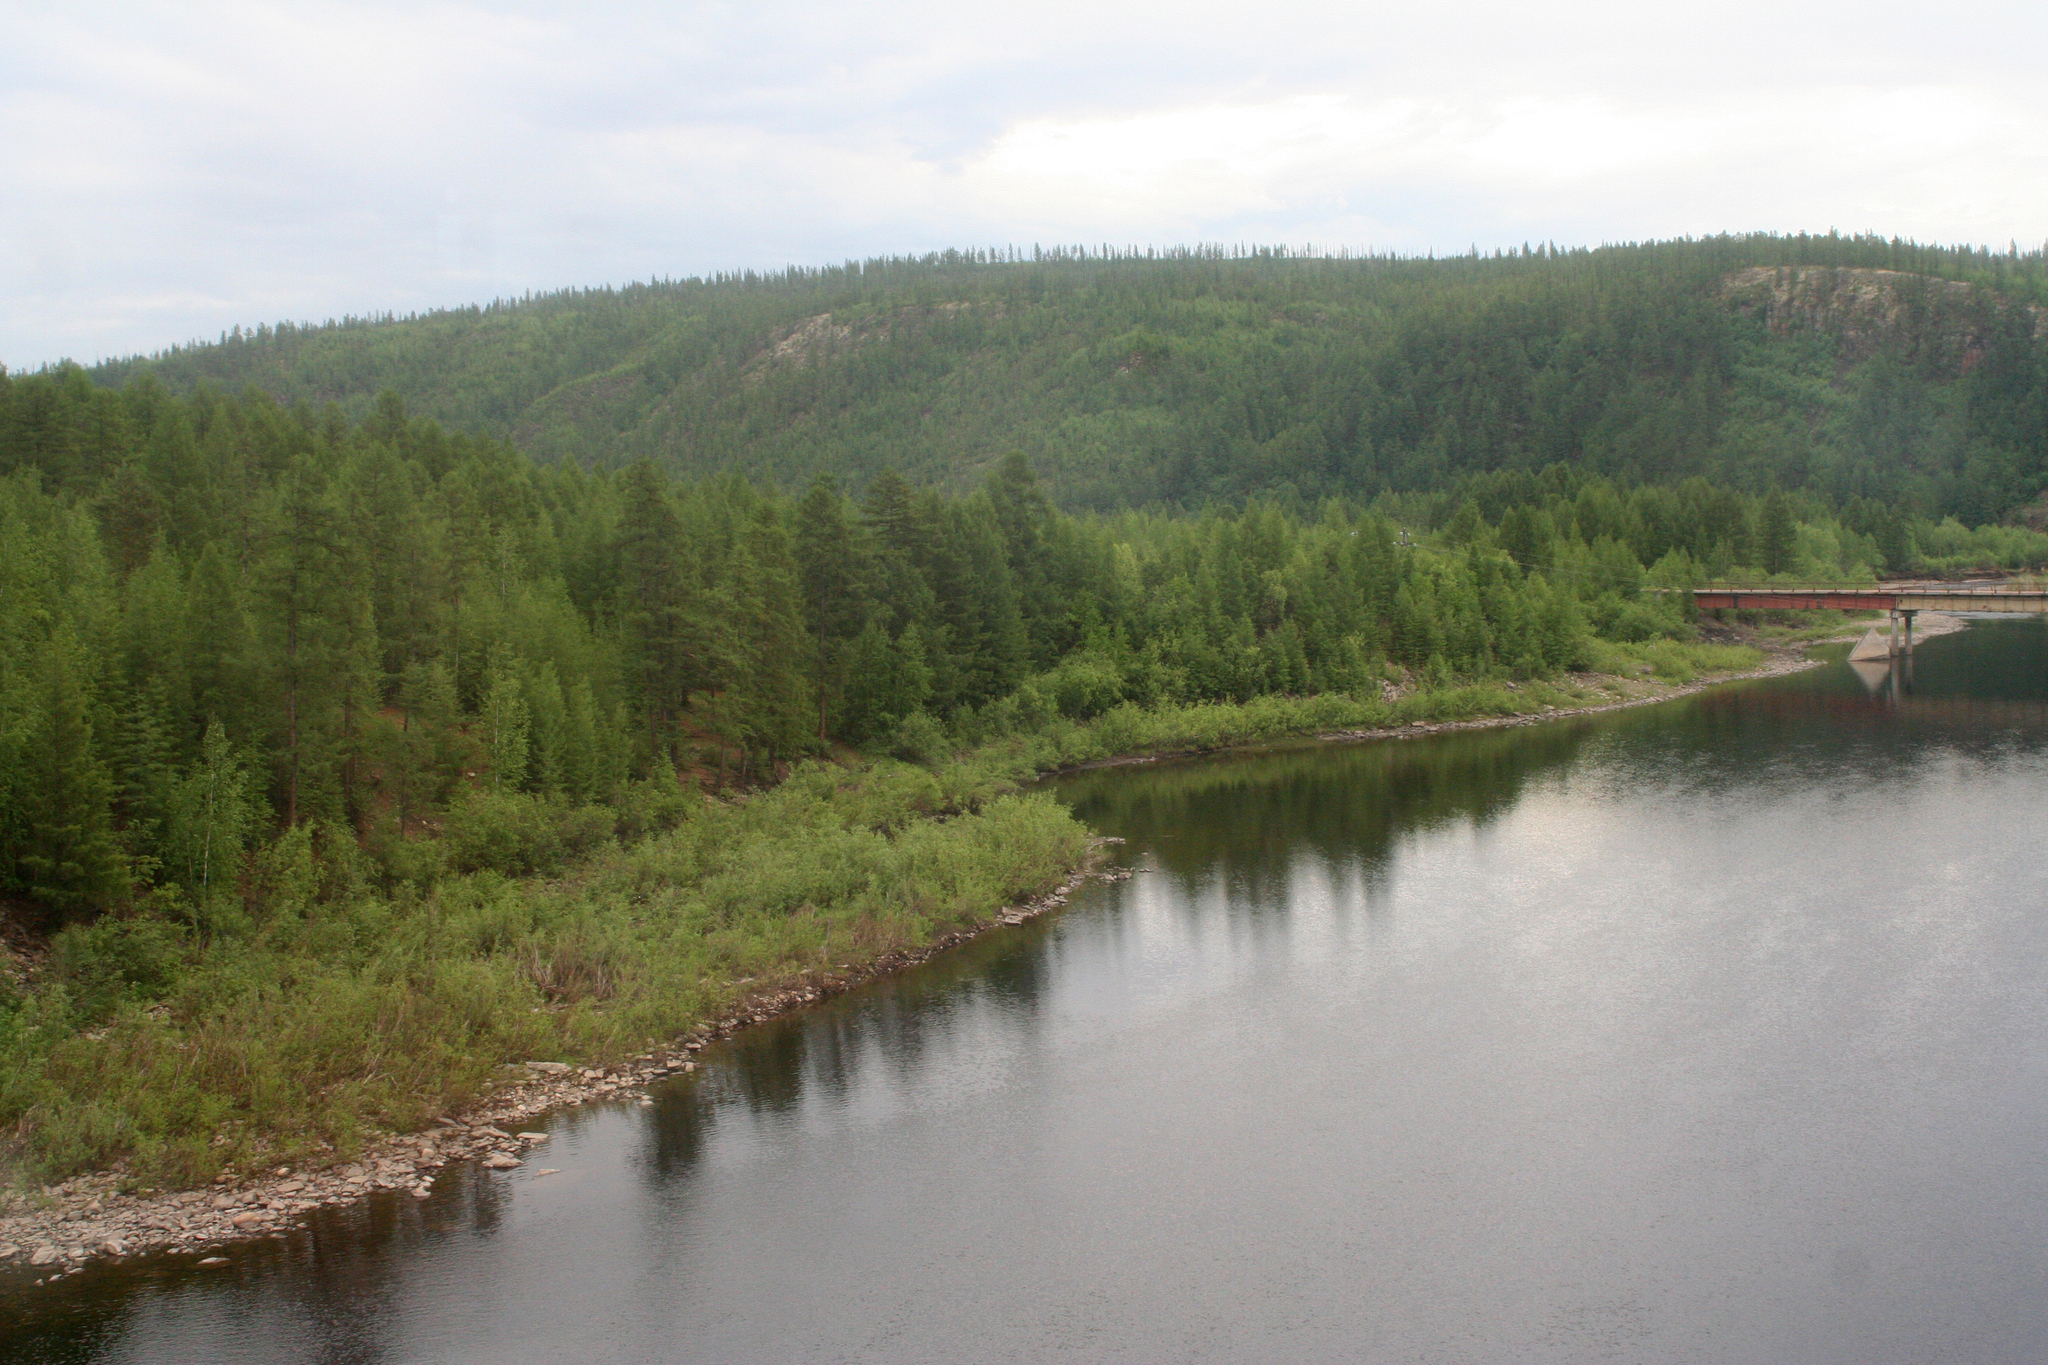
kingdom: Plantae
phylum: Tracheophyta
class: Pinopsida
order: Pinales
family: Pinaceae
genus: Pinus
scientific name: Pinus sylvestris
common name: Scots pine
